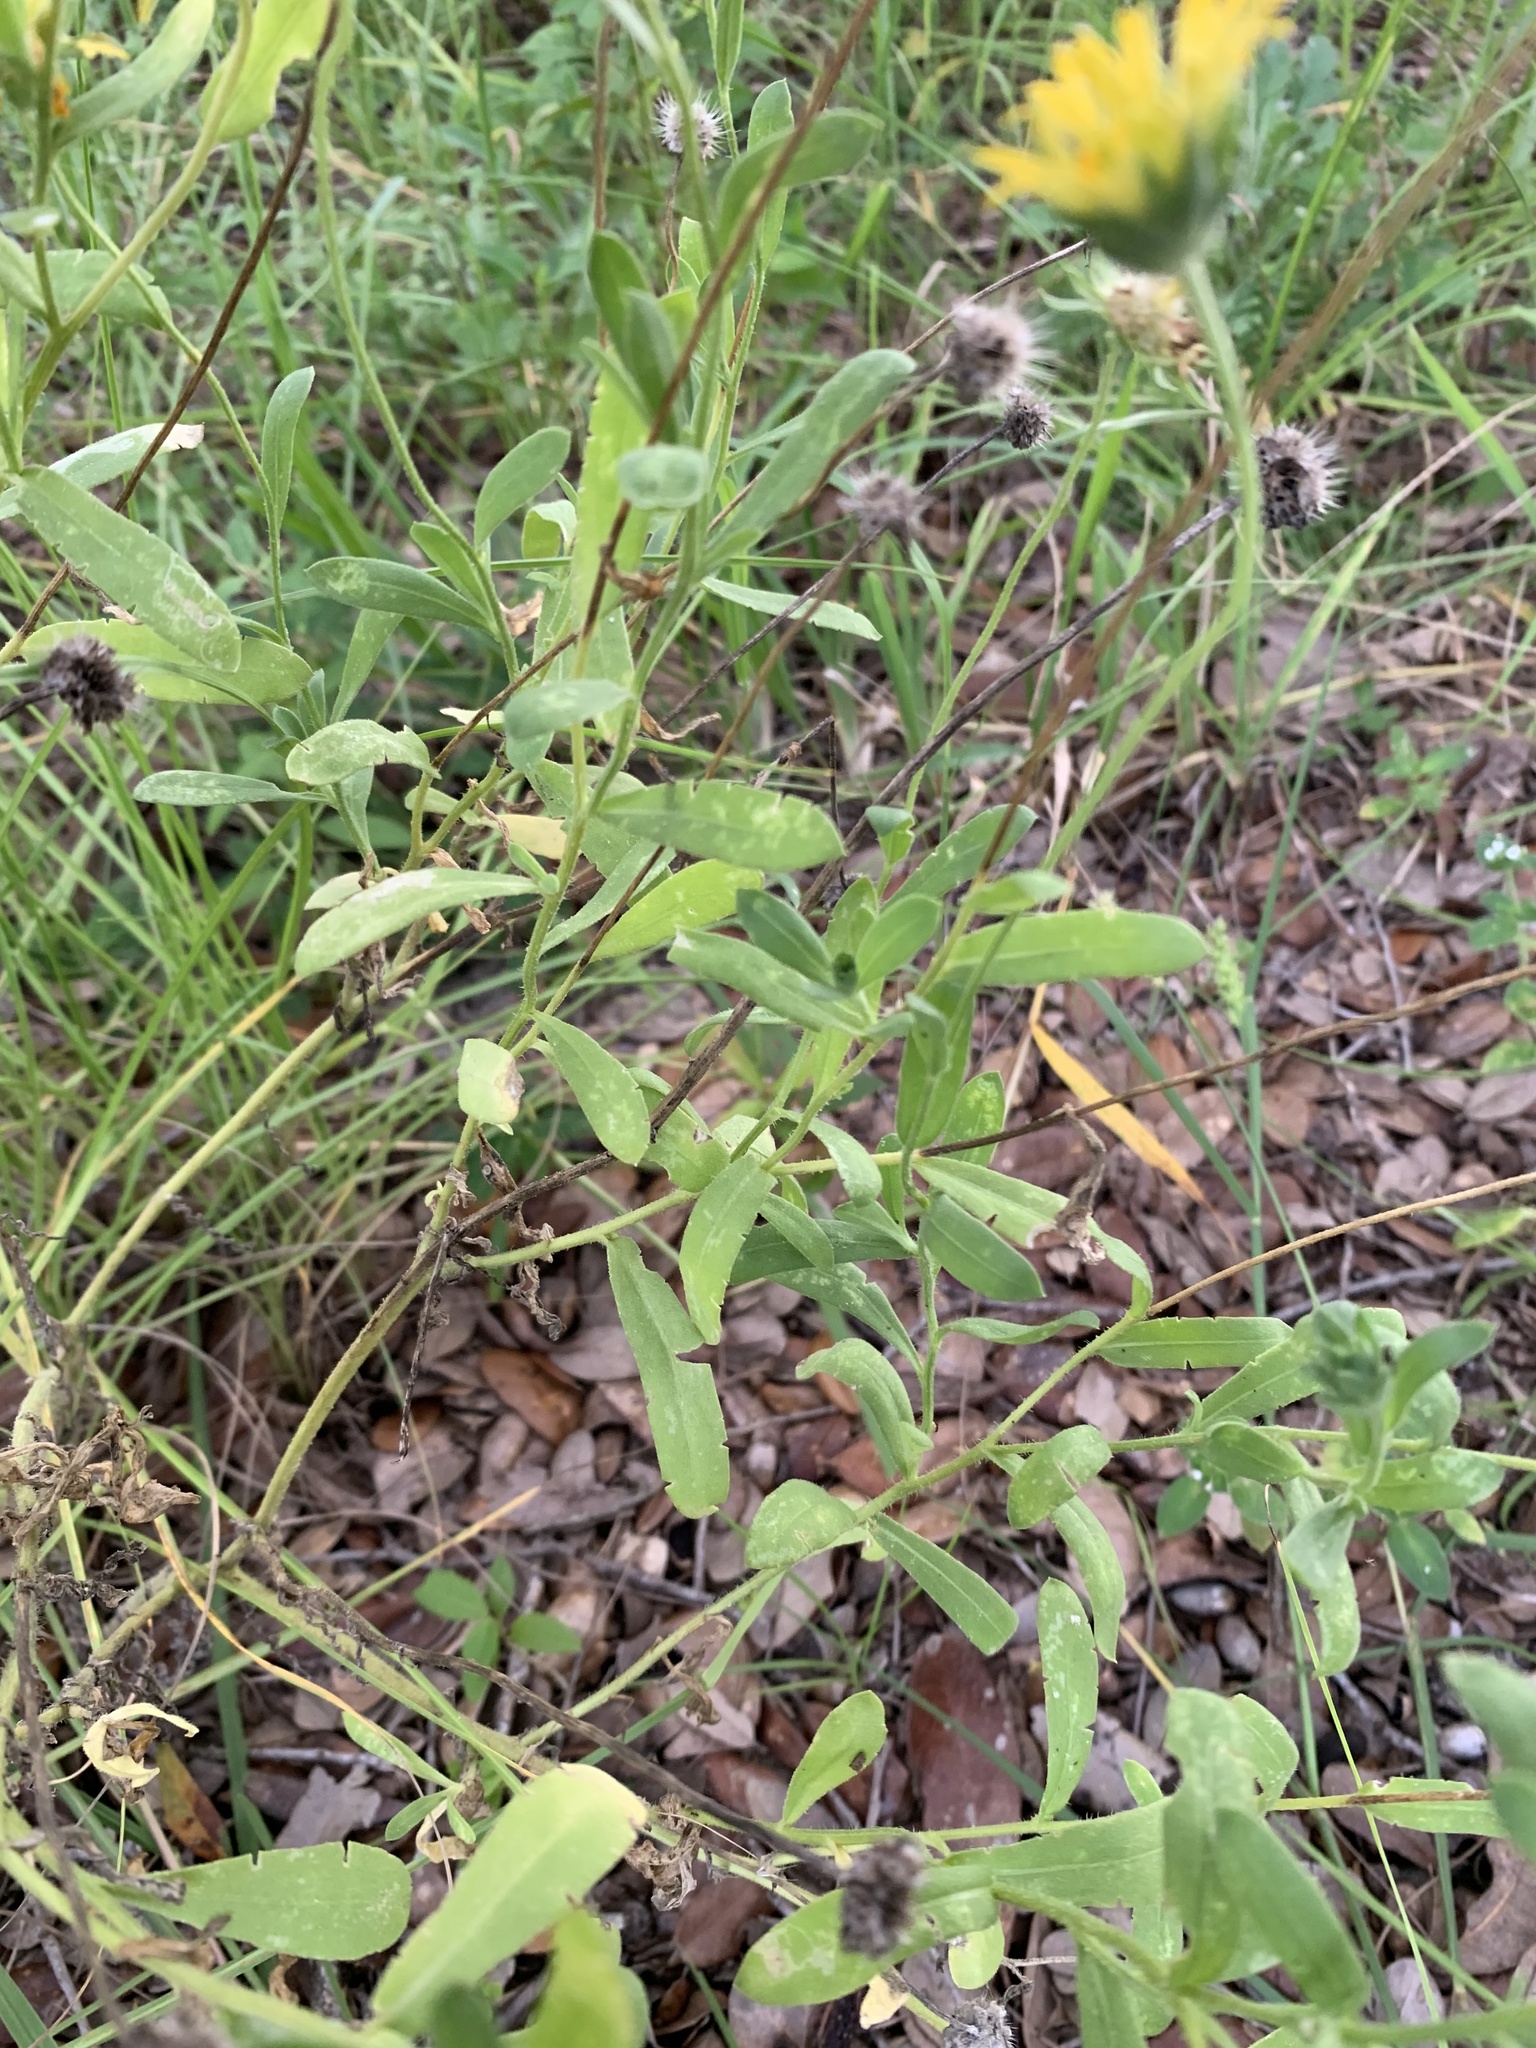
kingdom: Plantae
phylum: Tracheophyta
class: Magnoliopsida
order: Asterales
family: Asteraceae
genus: Gaillardia
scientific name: Gaillardia pulchella
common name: Firewheel
